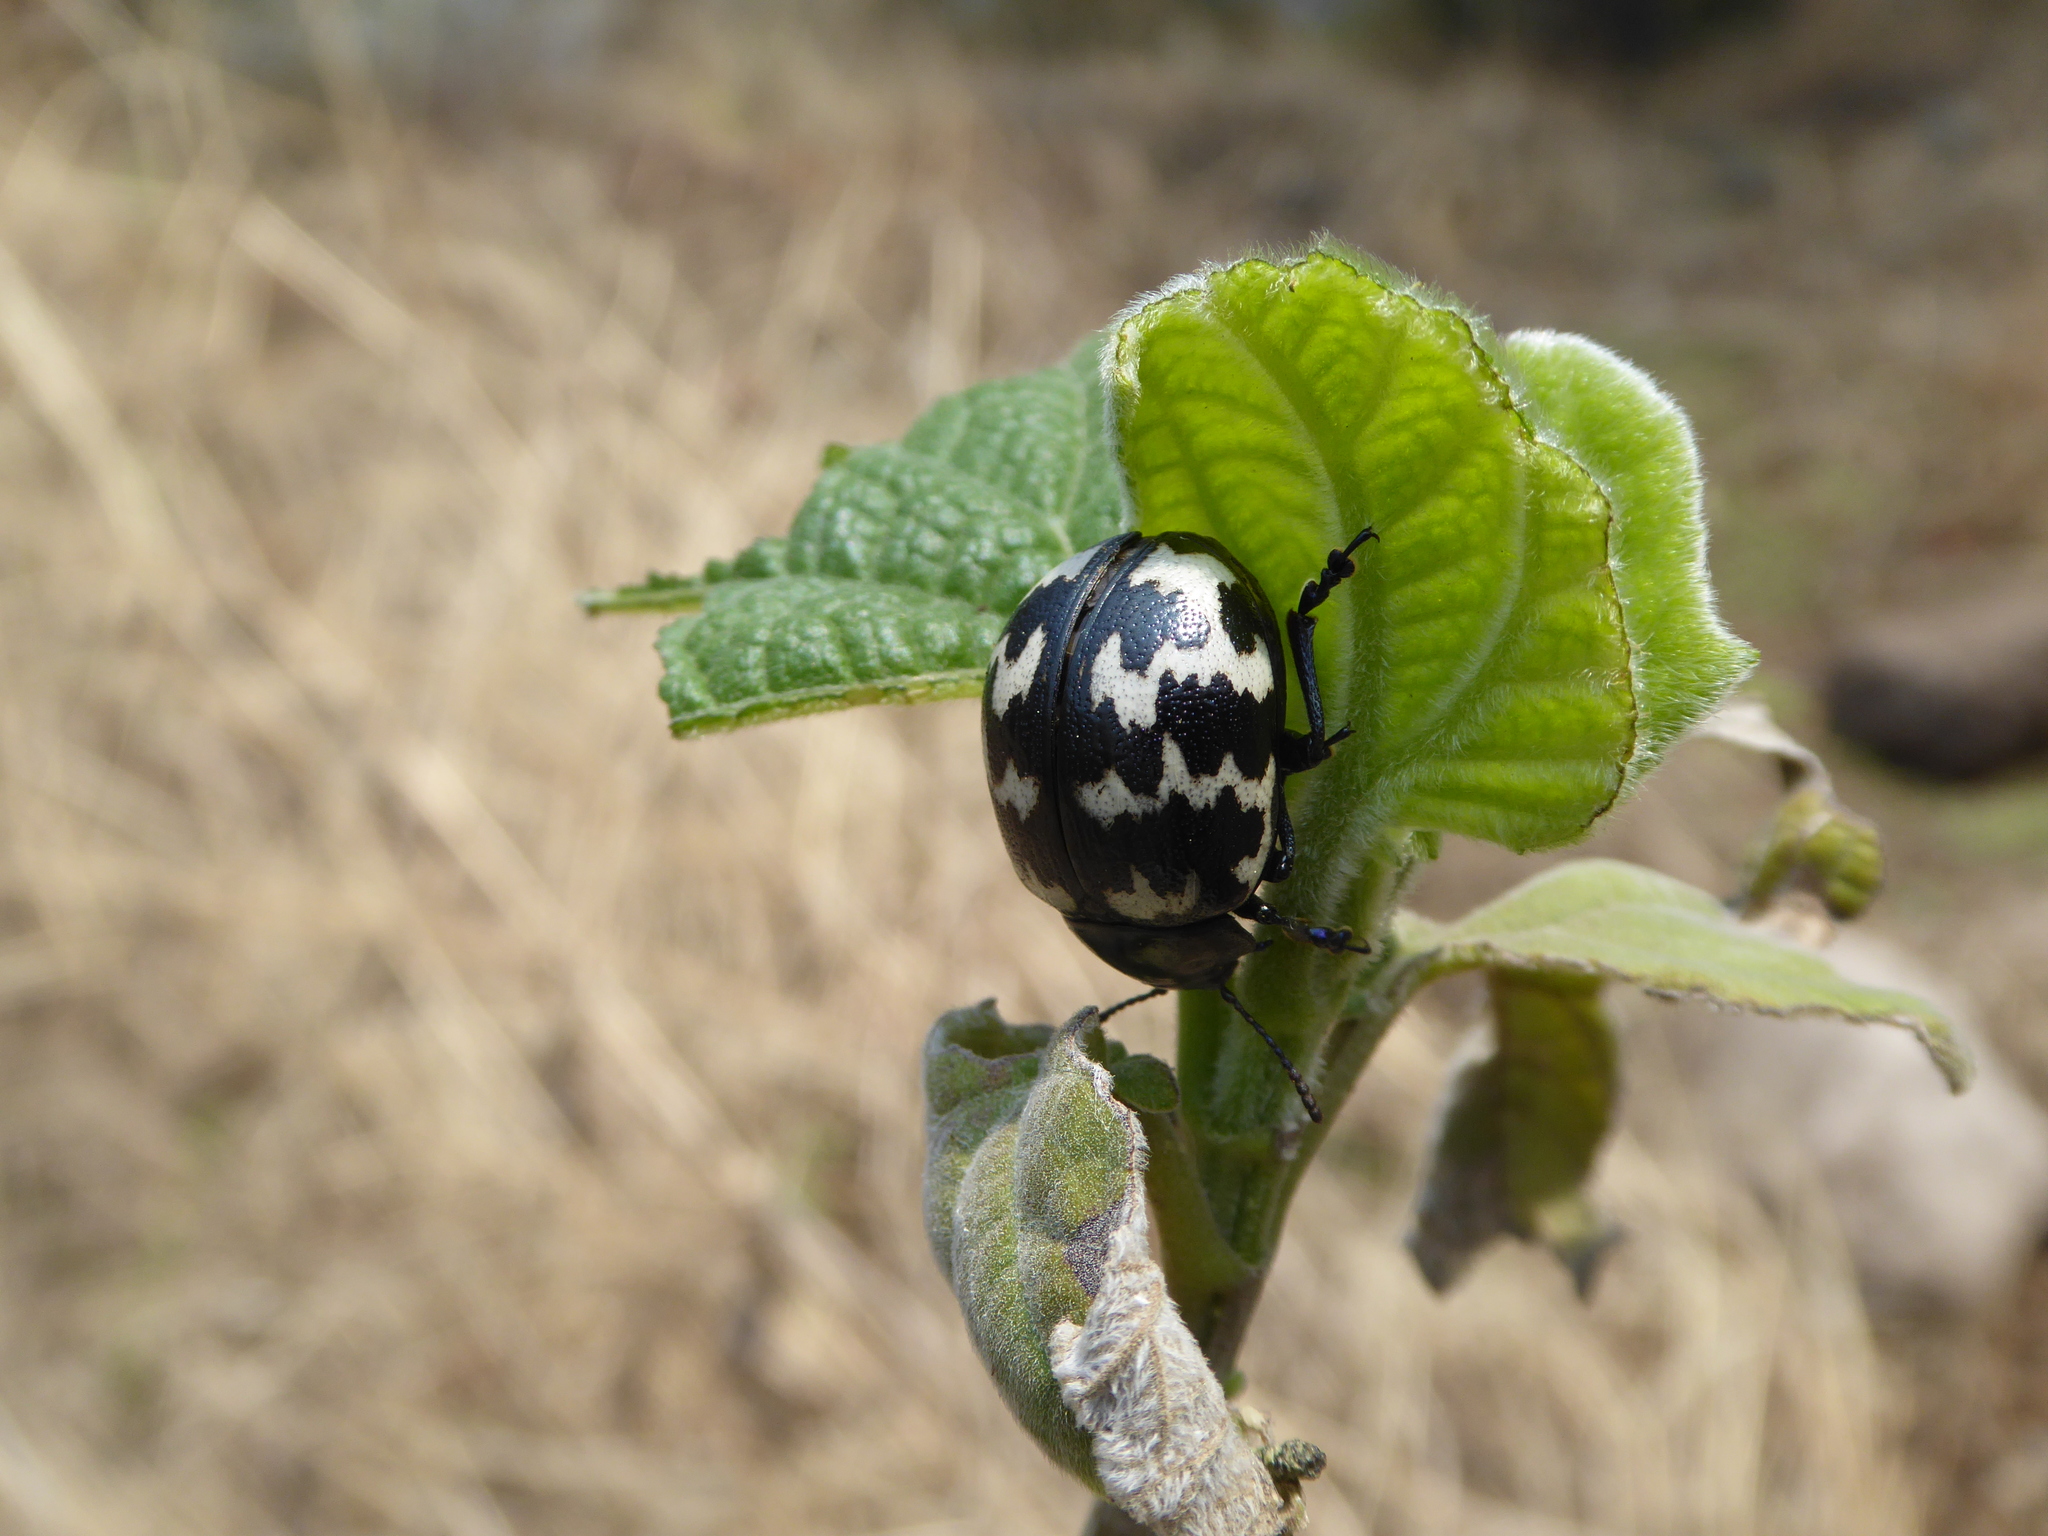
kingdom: Animalia
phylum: Arthropoda
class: Insecta
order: Coleoptera
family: Chrysomelidae
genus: Leptinotarsa
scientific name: Leptinotarsa
